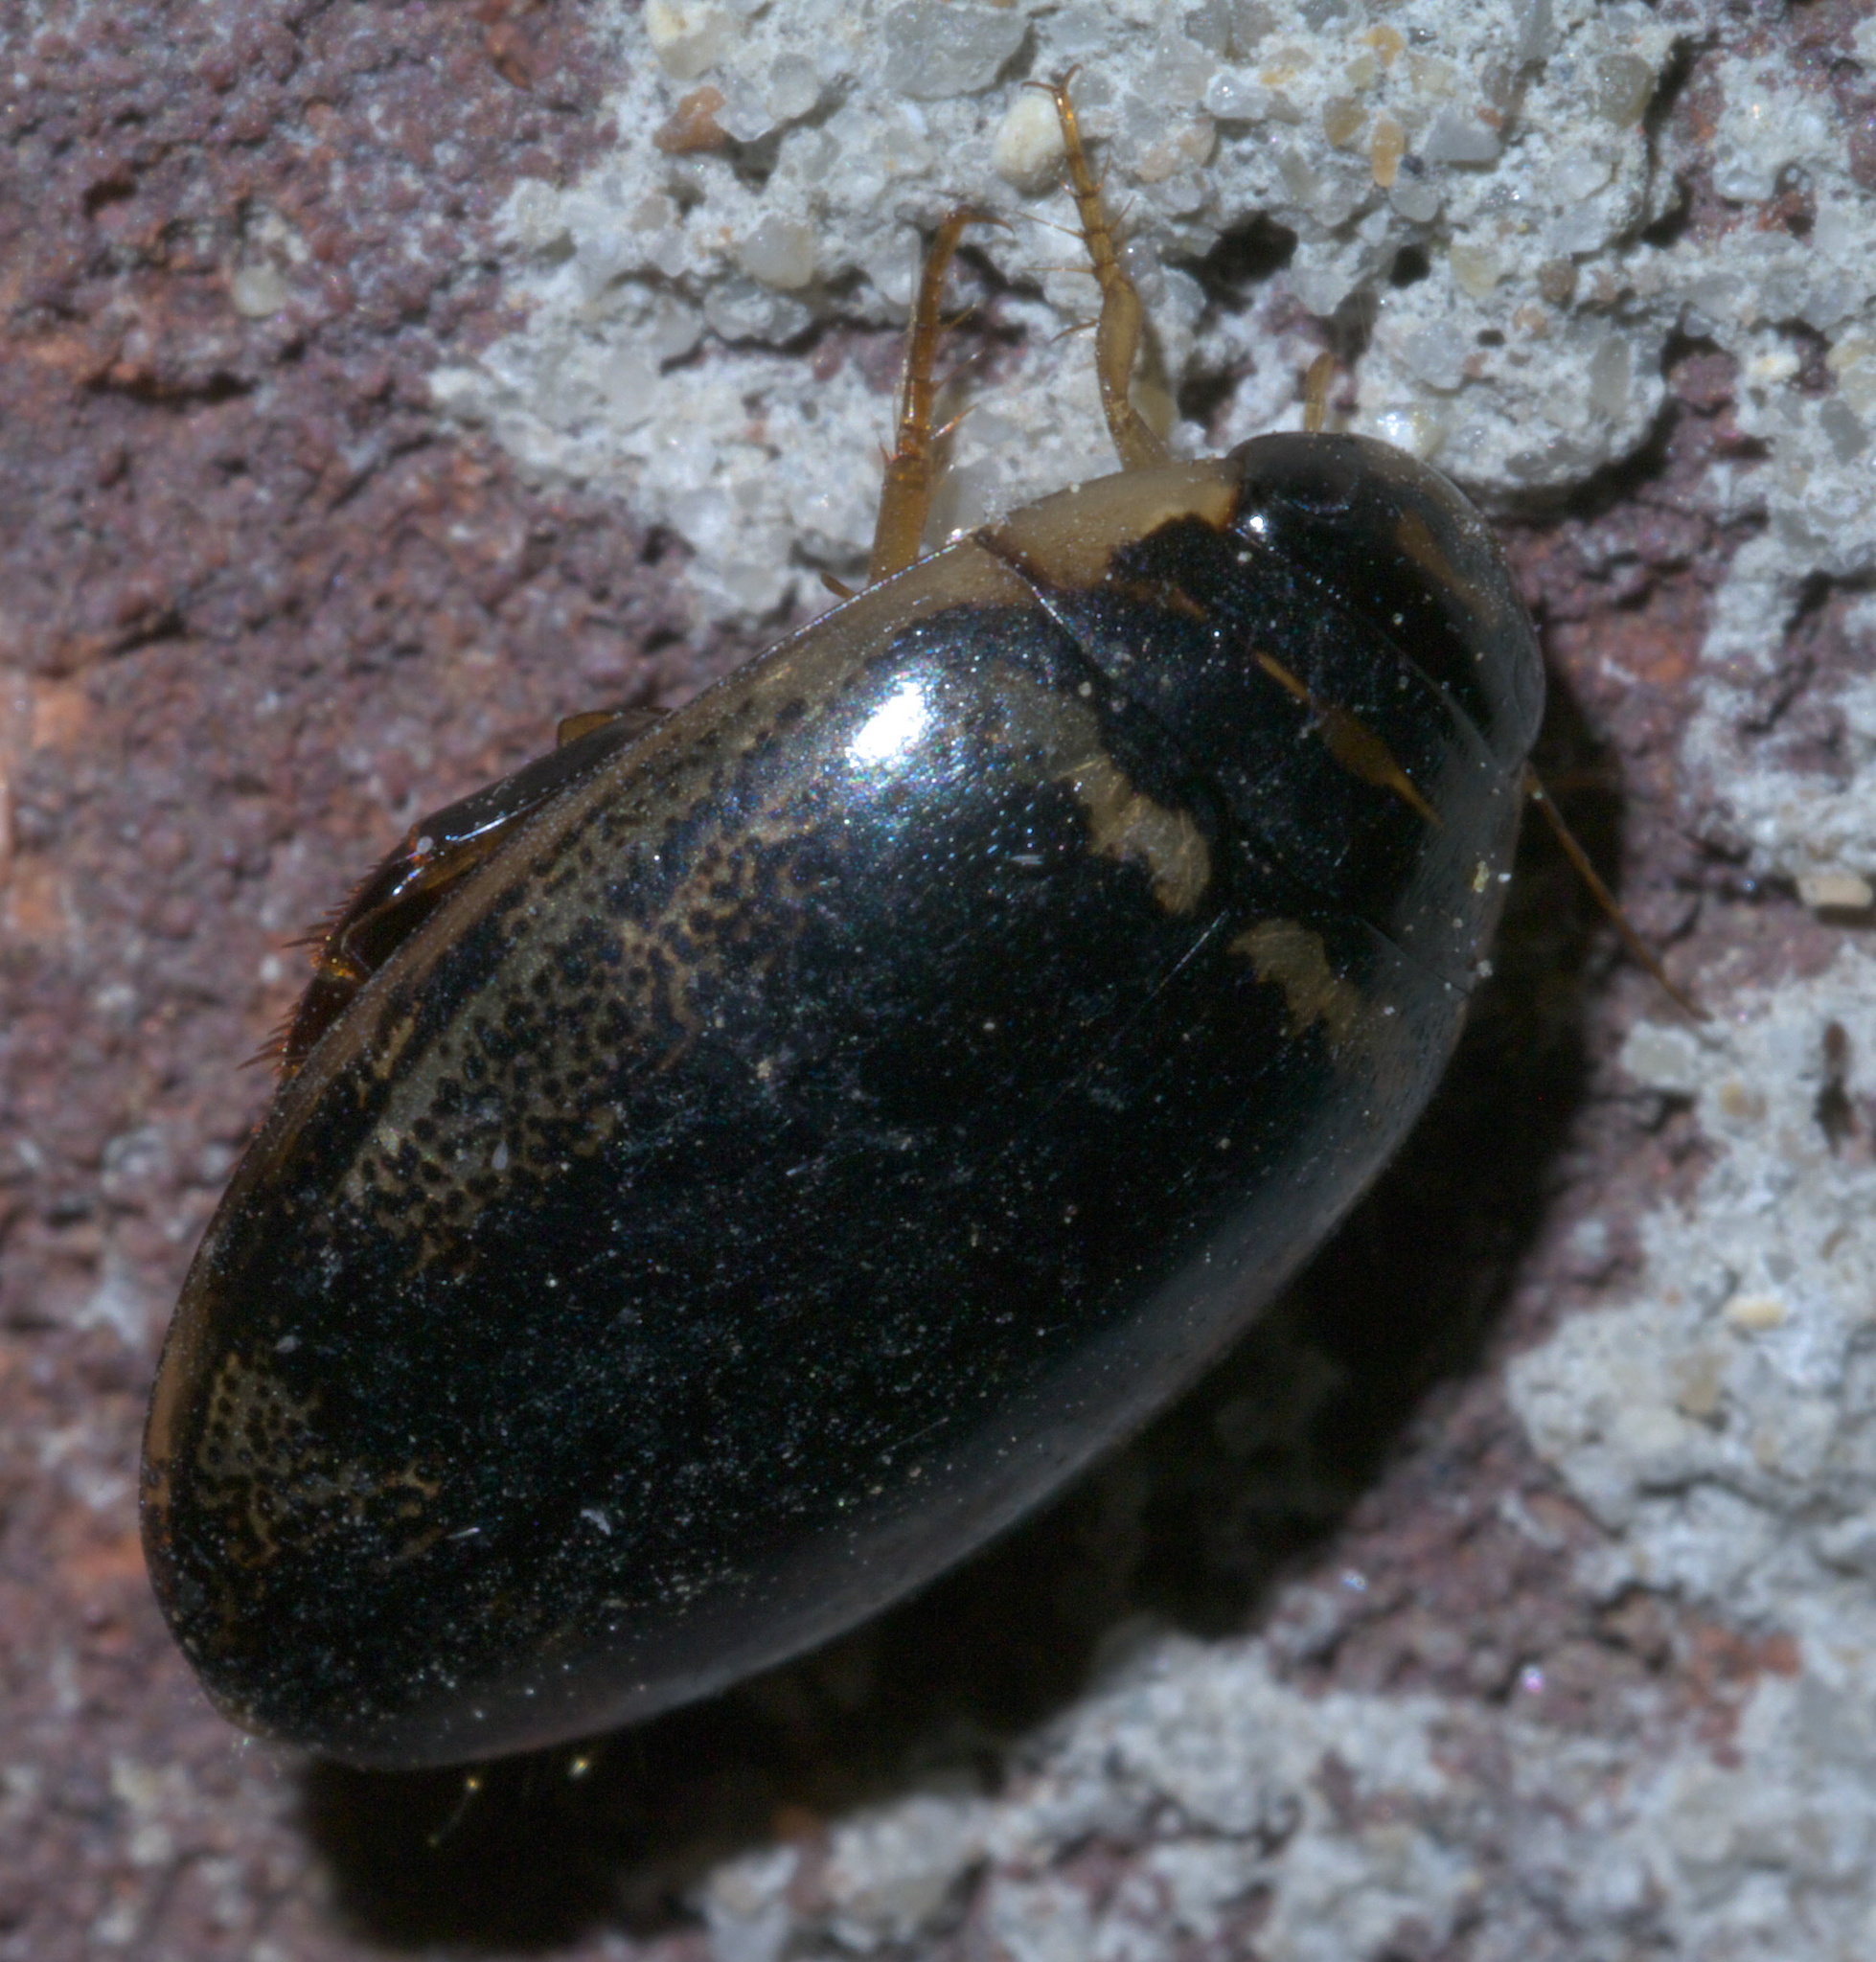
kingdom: Animalia
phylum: Arthropoda
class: Insecta
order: Coleoptera
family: Dytiscidae
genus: Thermonectus
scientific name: Thermonectus basillaris
